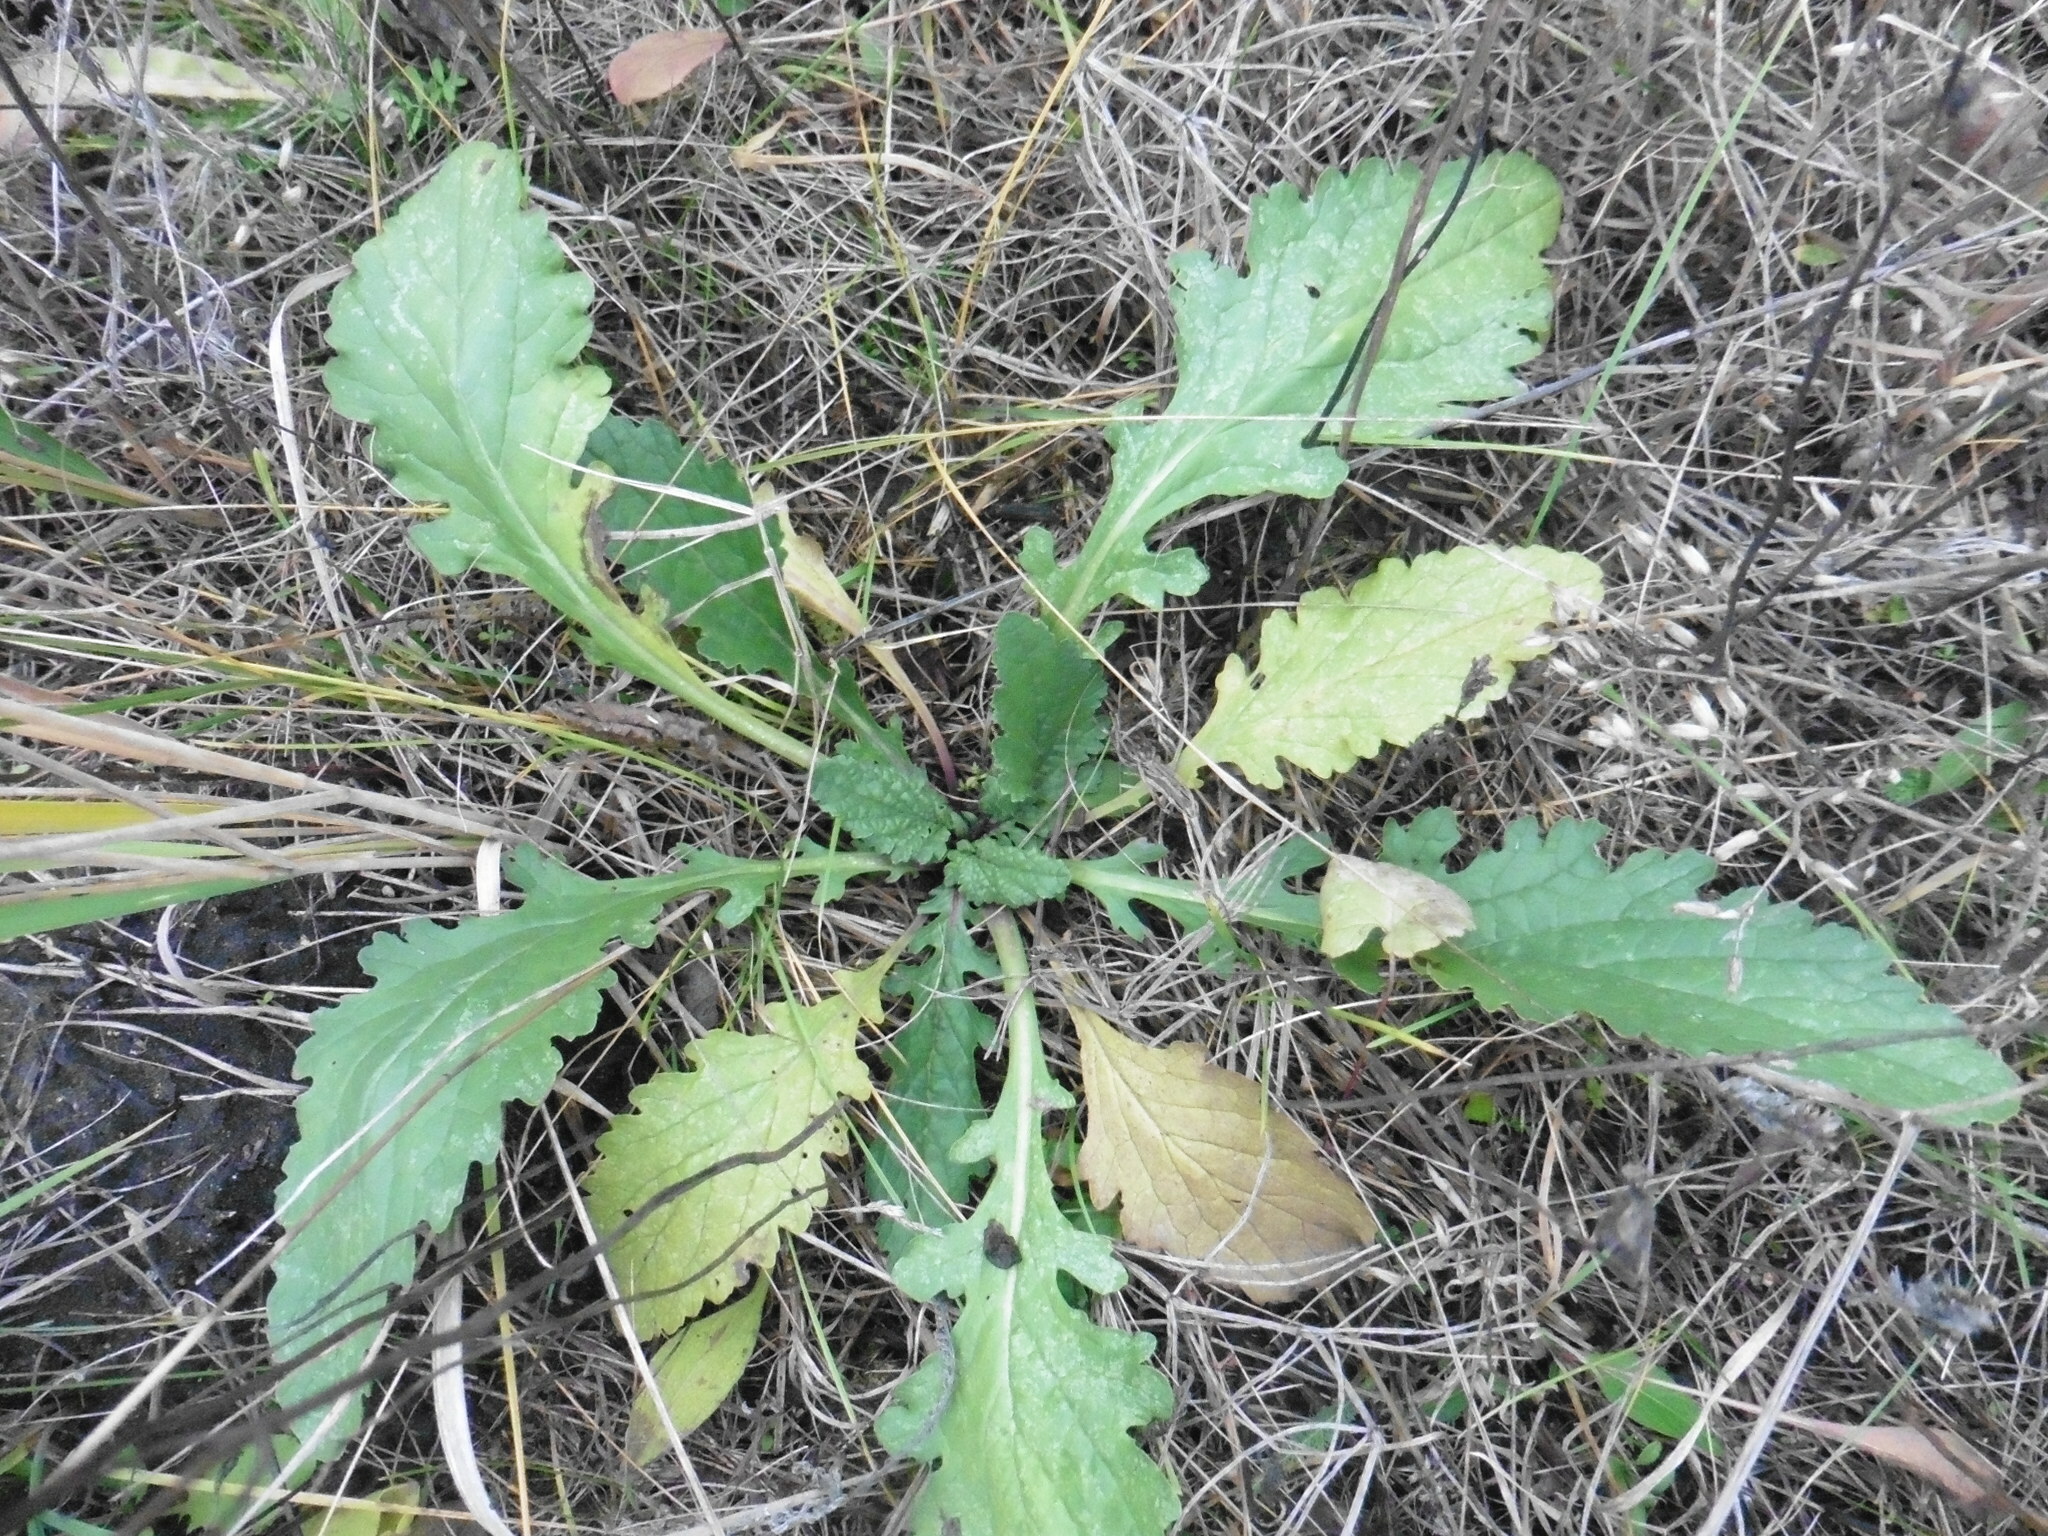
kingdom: Plantae
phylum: Tracheophyta
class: Magnoliopsida
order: Asterales
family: Asteraceae
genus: Jacobaea
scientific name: Jacobaea vulgaris
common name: Stinking willie
